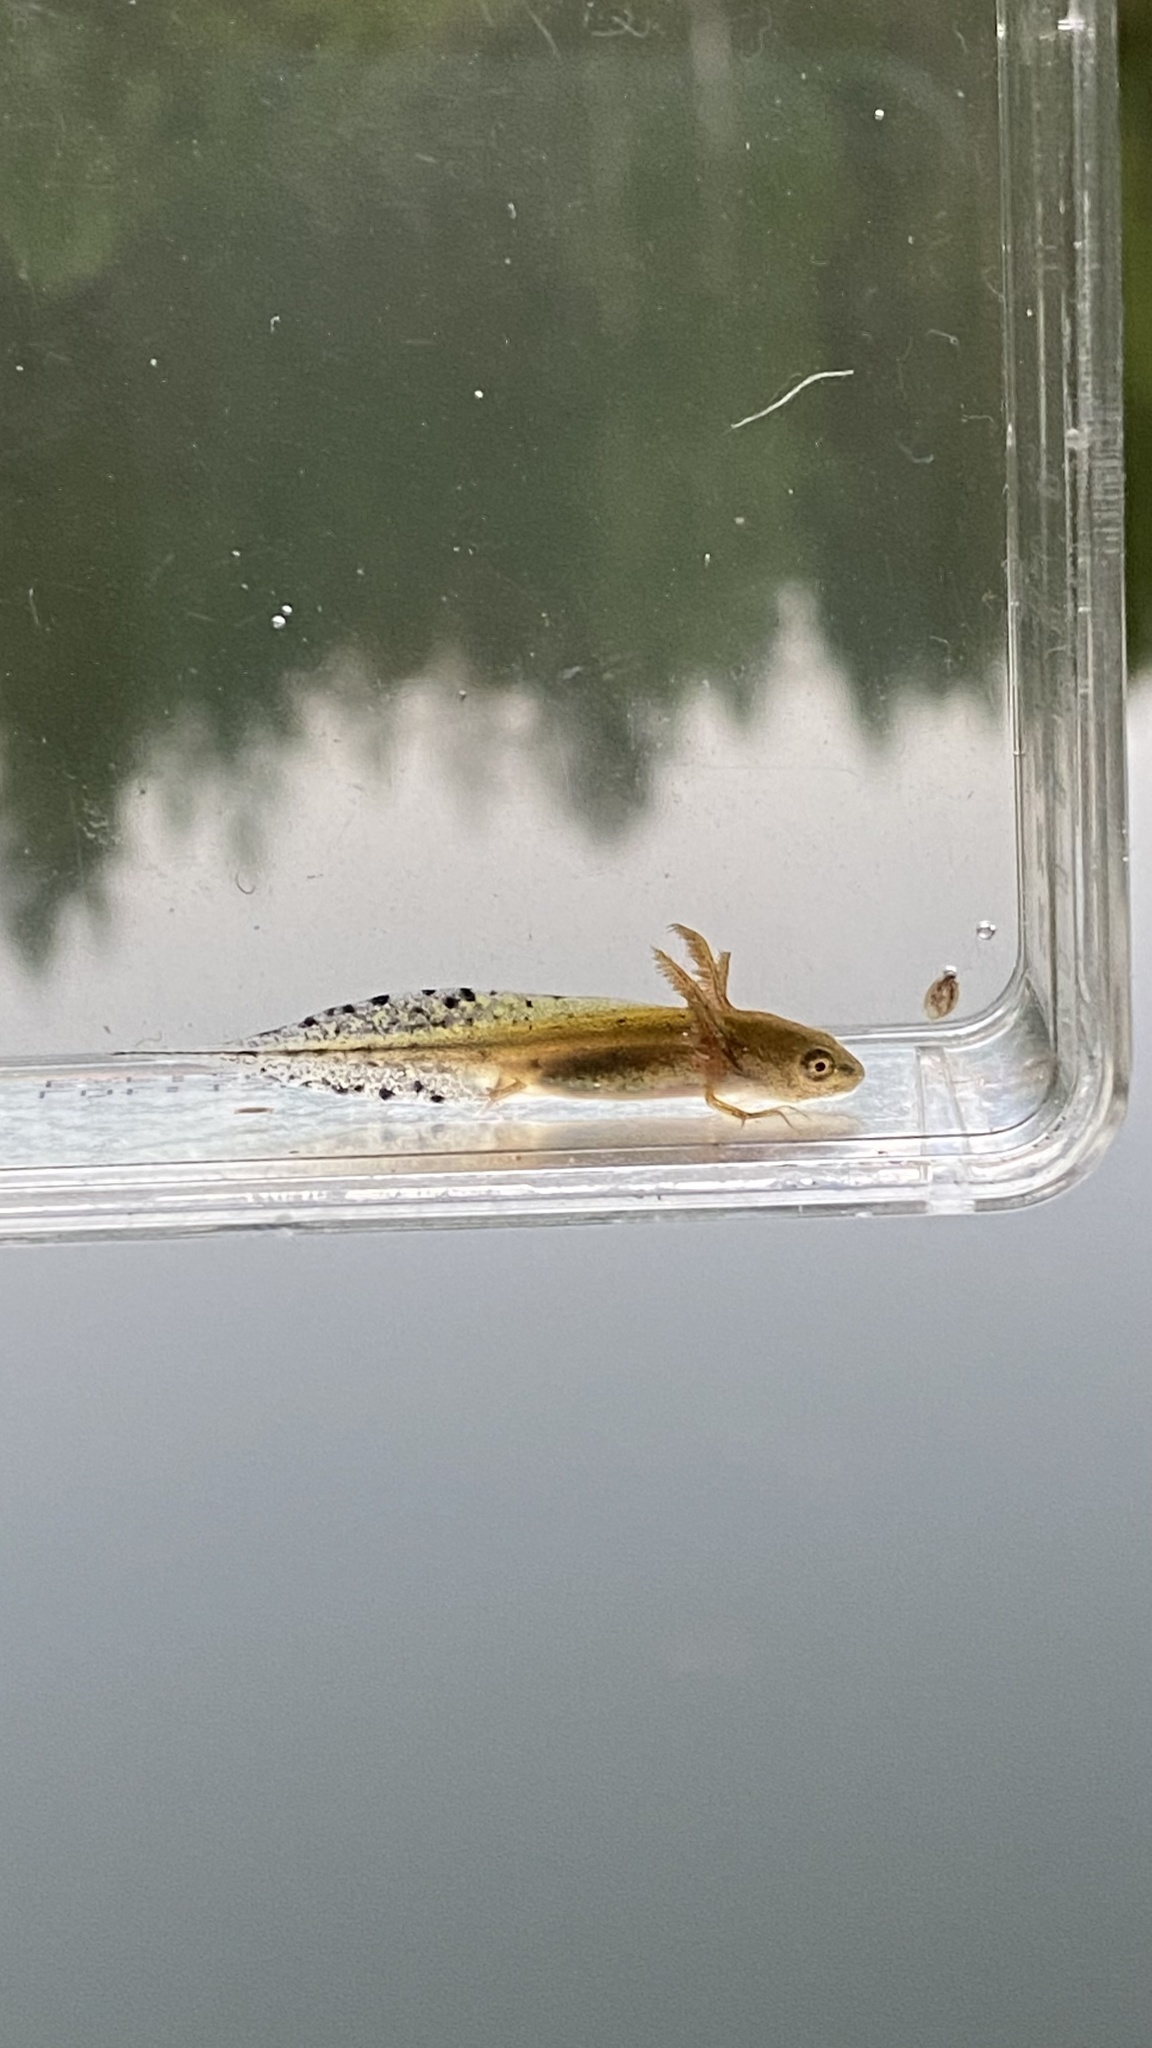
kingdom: Animalia
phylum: Chordata
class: Amphibia
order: Caudata
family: Salamandridae
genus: Triturus
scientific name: Triturus cristatus
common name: Crested newt
